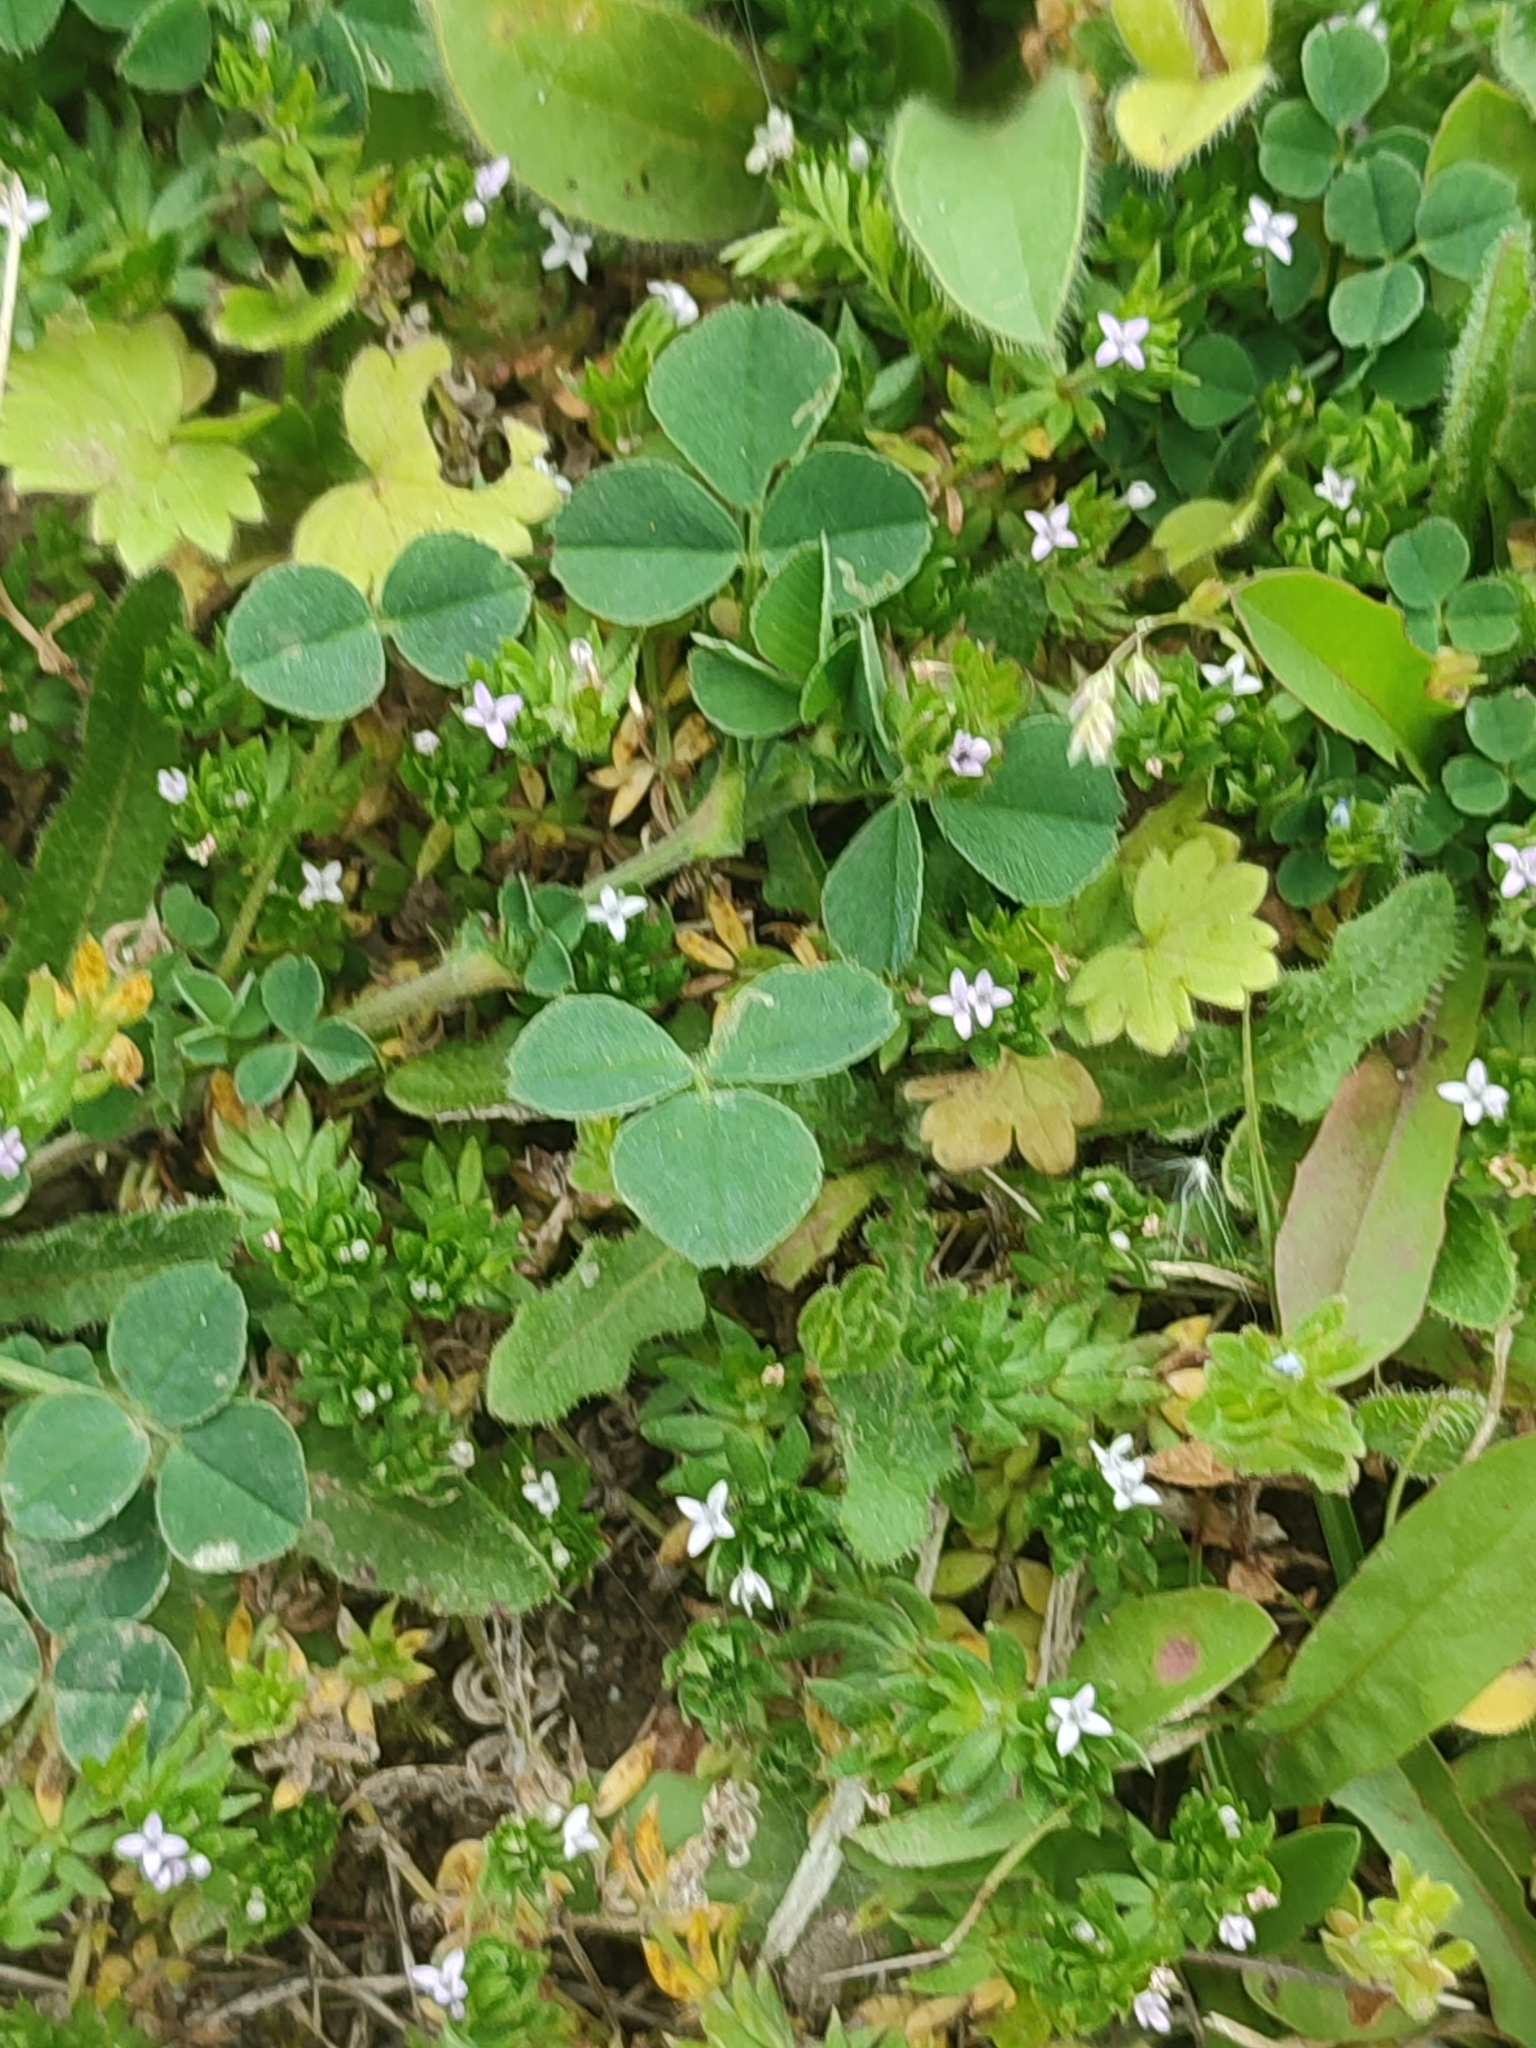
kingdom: Plantae
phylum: Tracheophyta
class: Magnoliopsida
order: Gentianales
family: Rubiaceae
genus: Sherardia
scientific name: Sherardia arvensis
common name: Field madder
